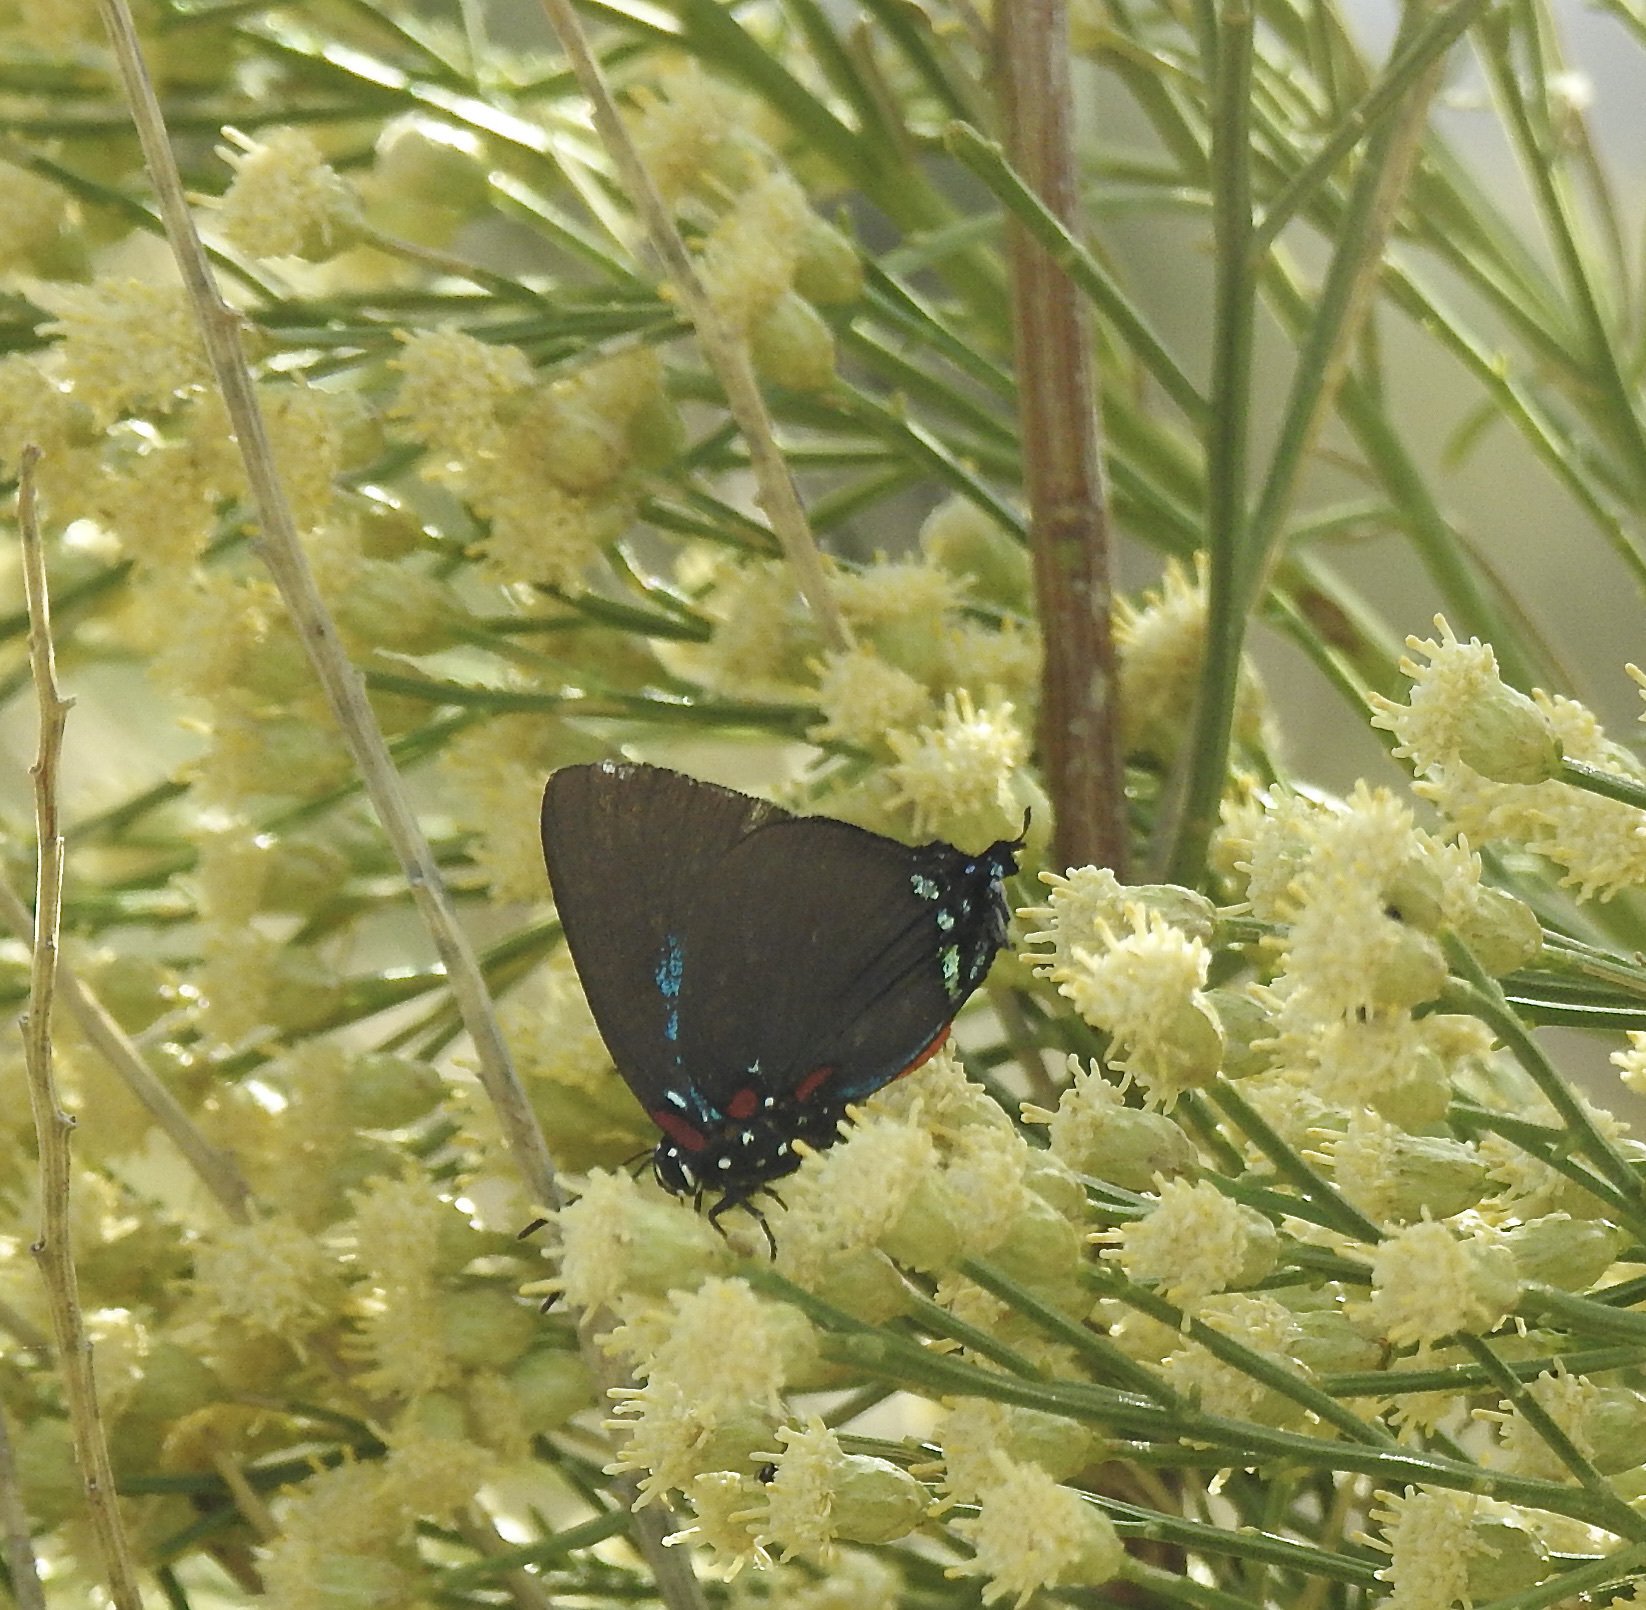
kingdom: Animalia
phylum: Arthropoda
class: Insecta
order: Lepidoptera
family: Lycaenidae
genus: Atlides
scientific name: Atlides halesus
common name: Great purple hairstreak
